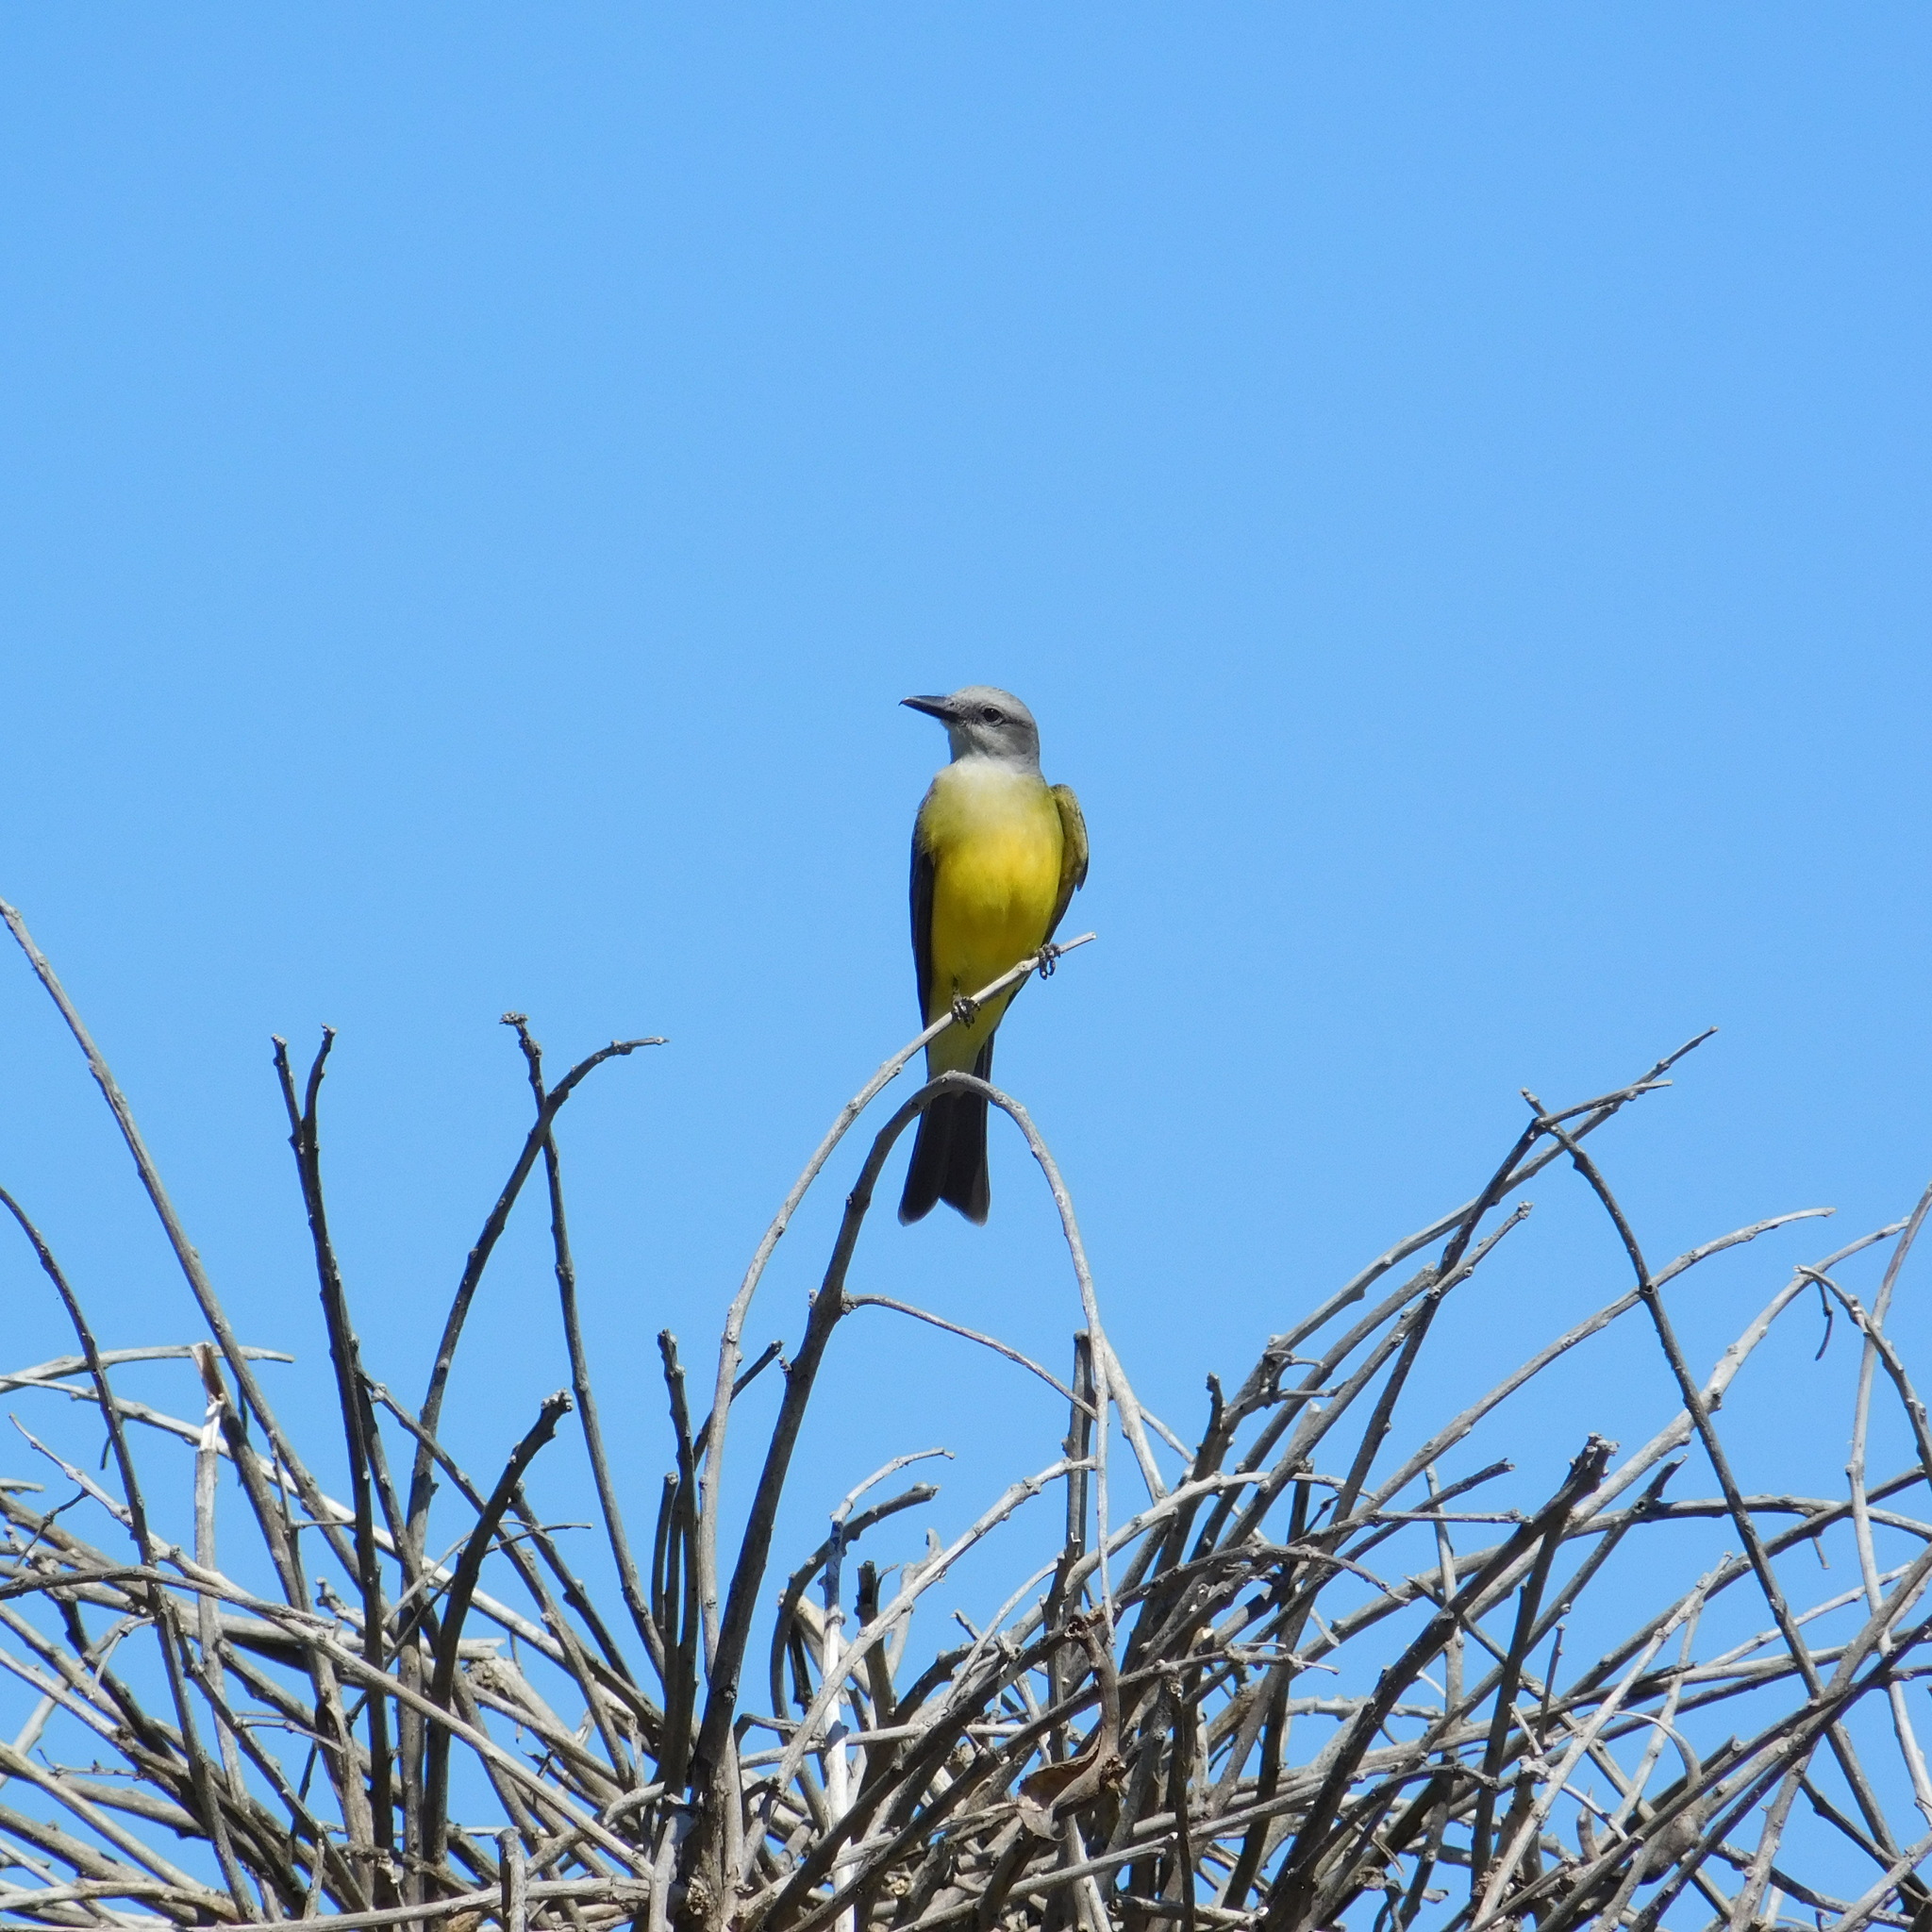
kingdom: Animalia
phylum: Chordata
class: Aves
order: Passeriformes
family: Tyrannidae
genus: Tyrannus
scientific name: Tyrannus melancholicus
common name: Tropical kingbird
